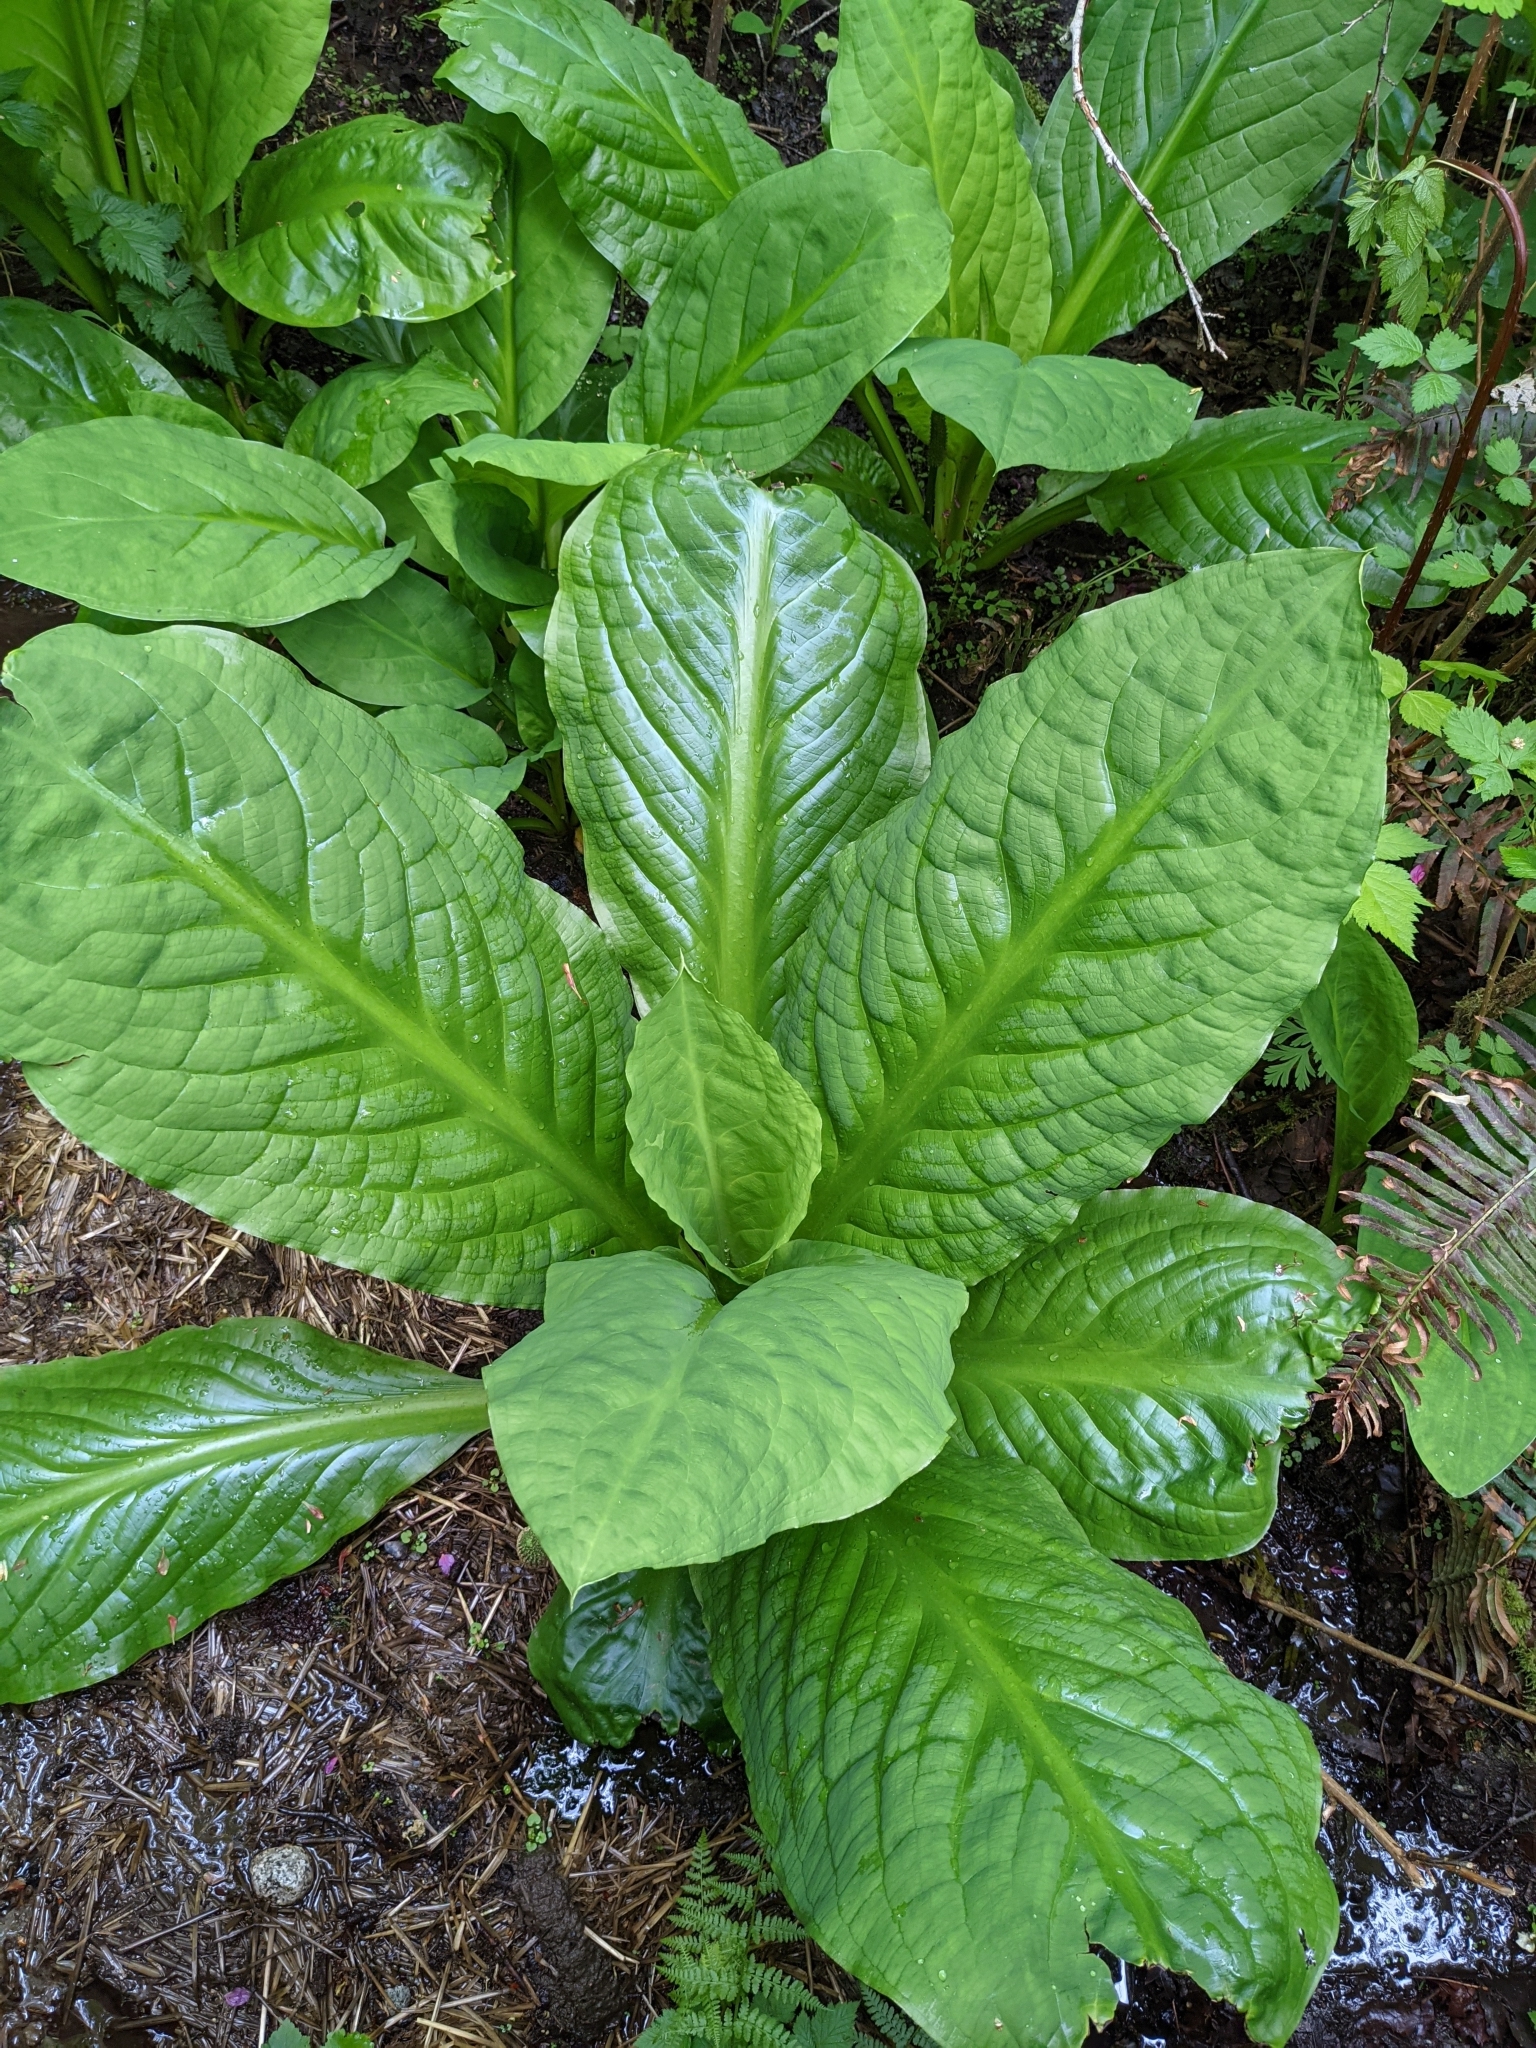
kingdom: Plantae
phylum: Tracheophyta
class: Liliopsida
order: Alismatales
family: Araceae
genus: Lysichiton
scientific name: Lysichiton americanus
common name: American skunk cabbage
